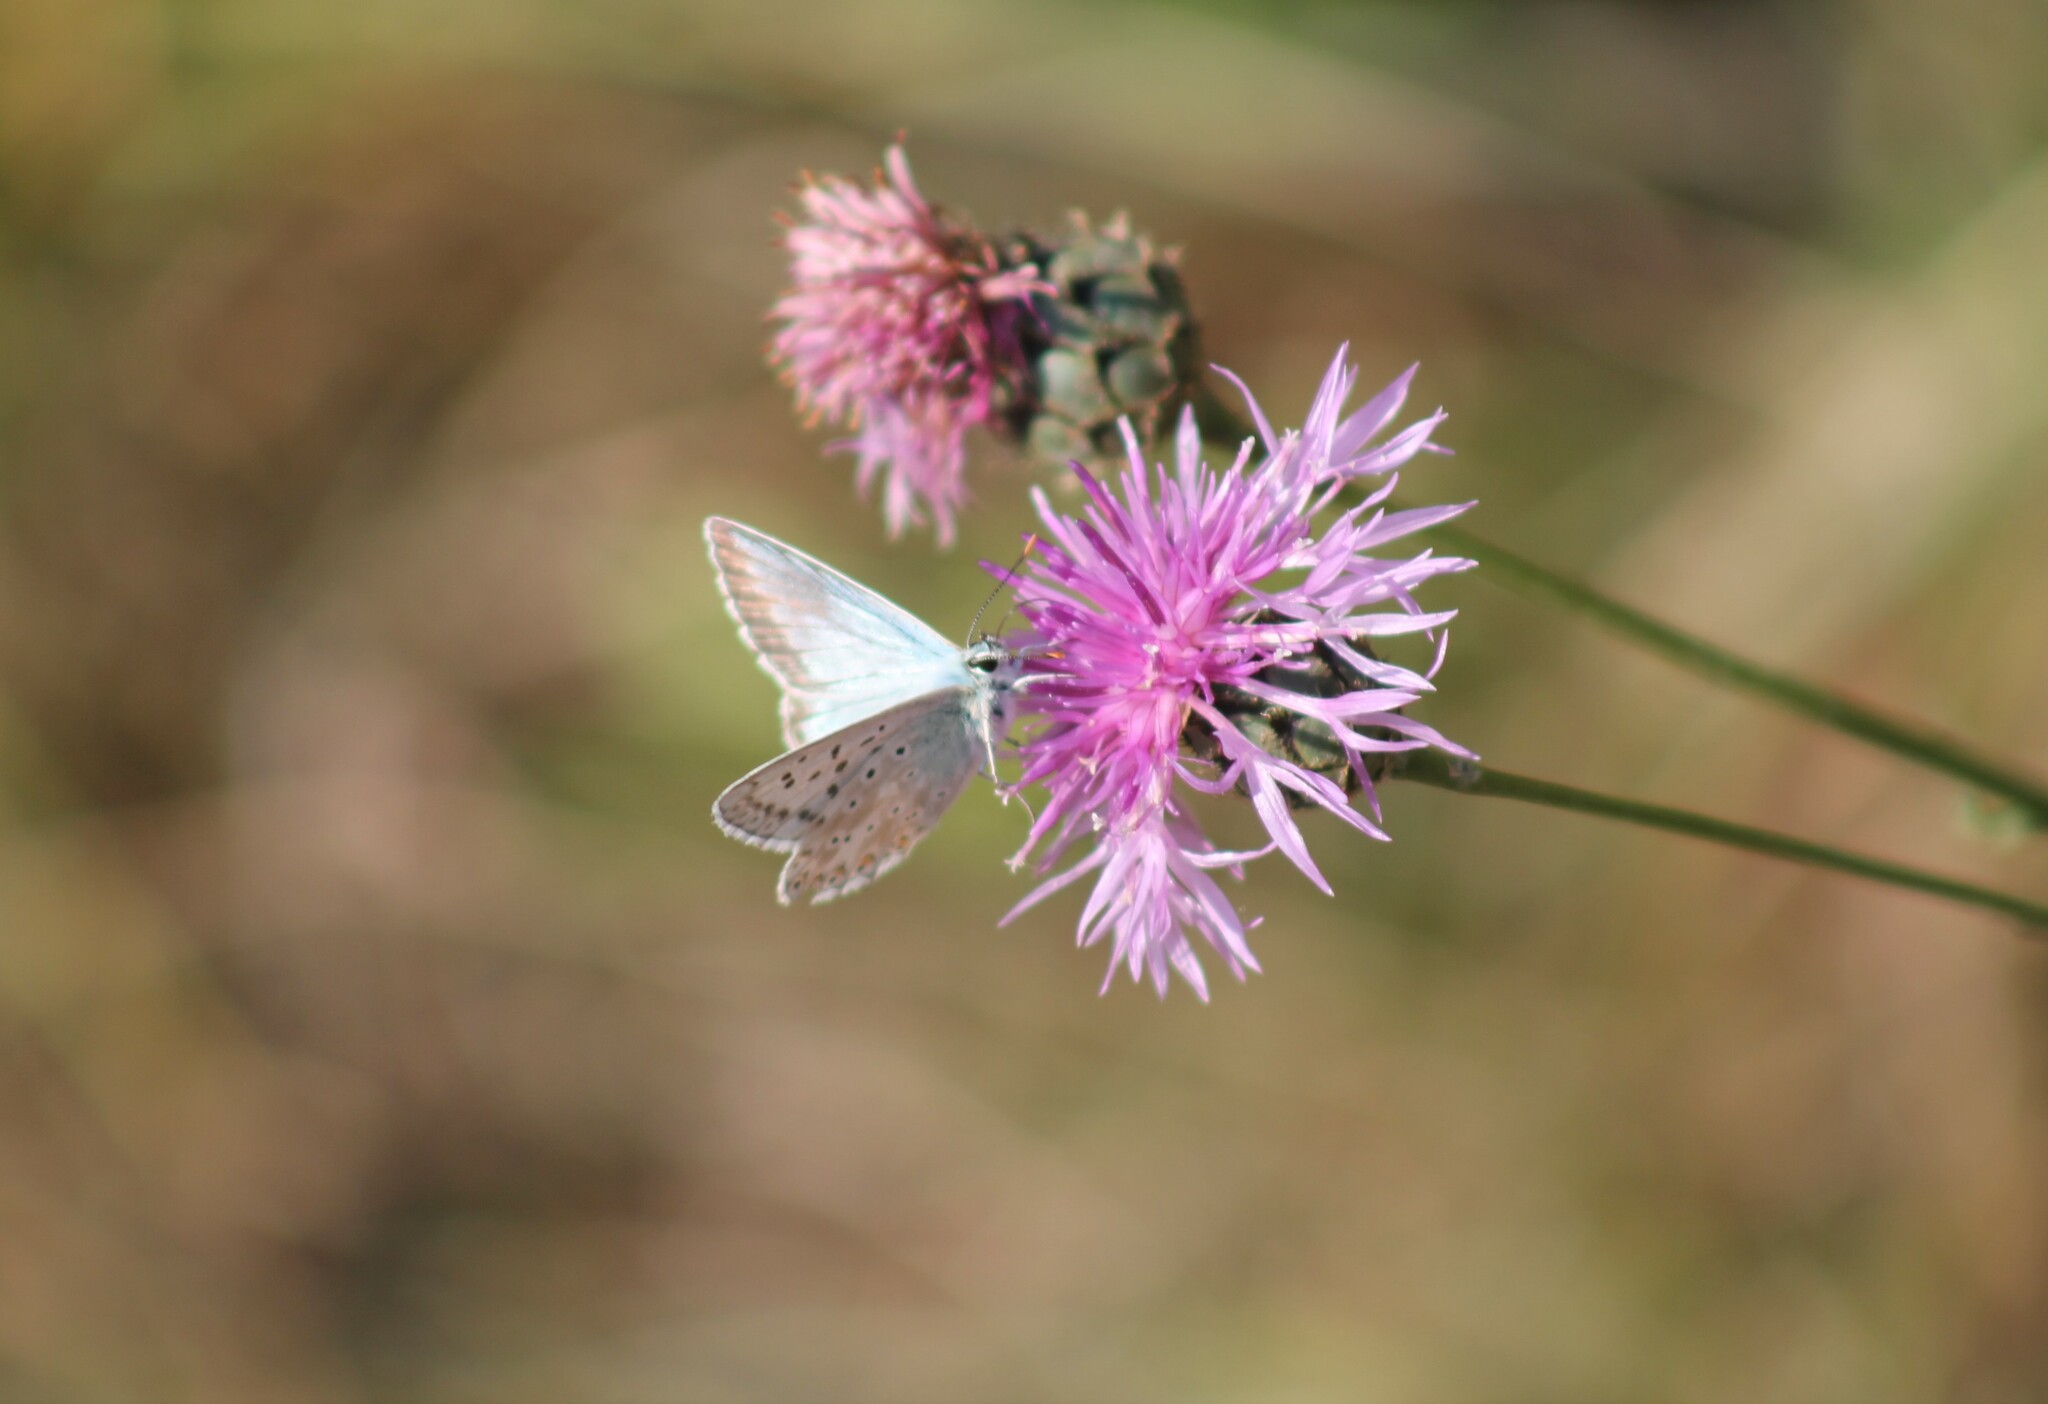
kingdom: Animalia
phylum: Arthropoda
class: Insecta
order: Lepidoptera
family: Lycaenidae
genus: Lysandra
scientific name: Lysandra coridon
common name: Chalkhill blue
